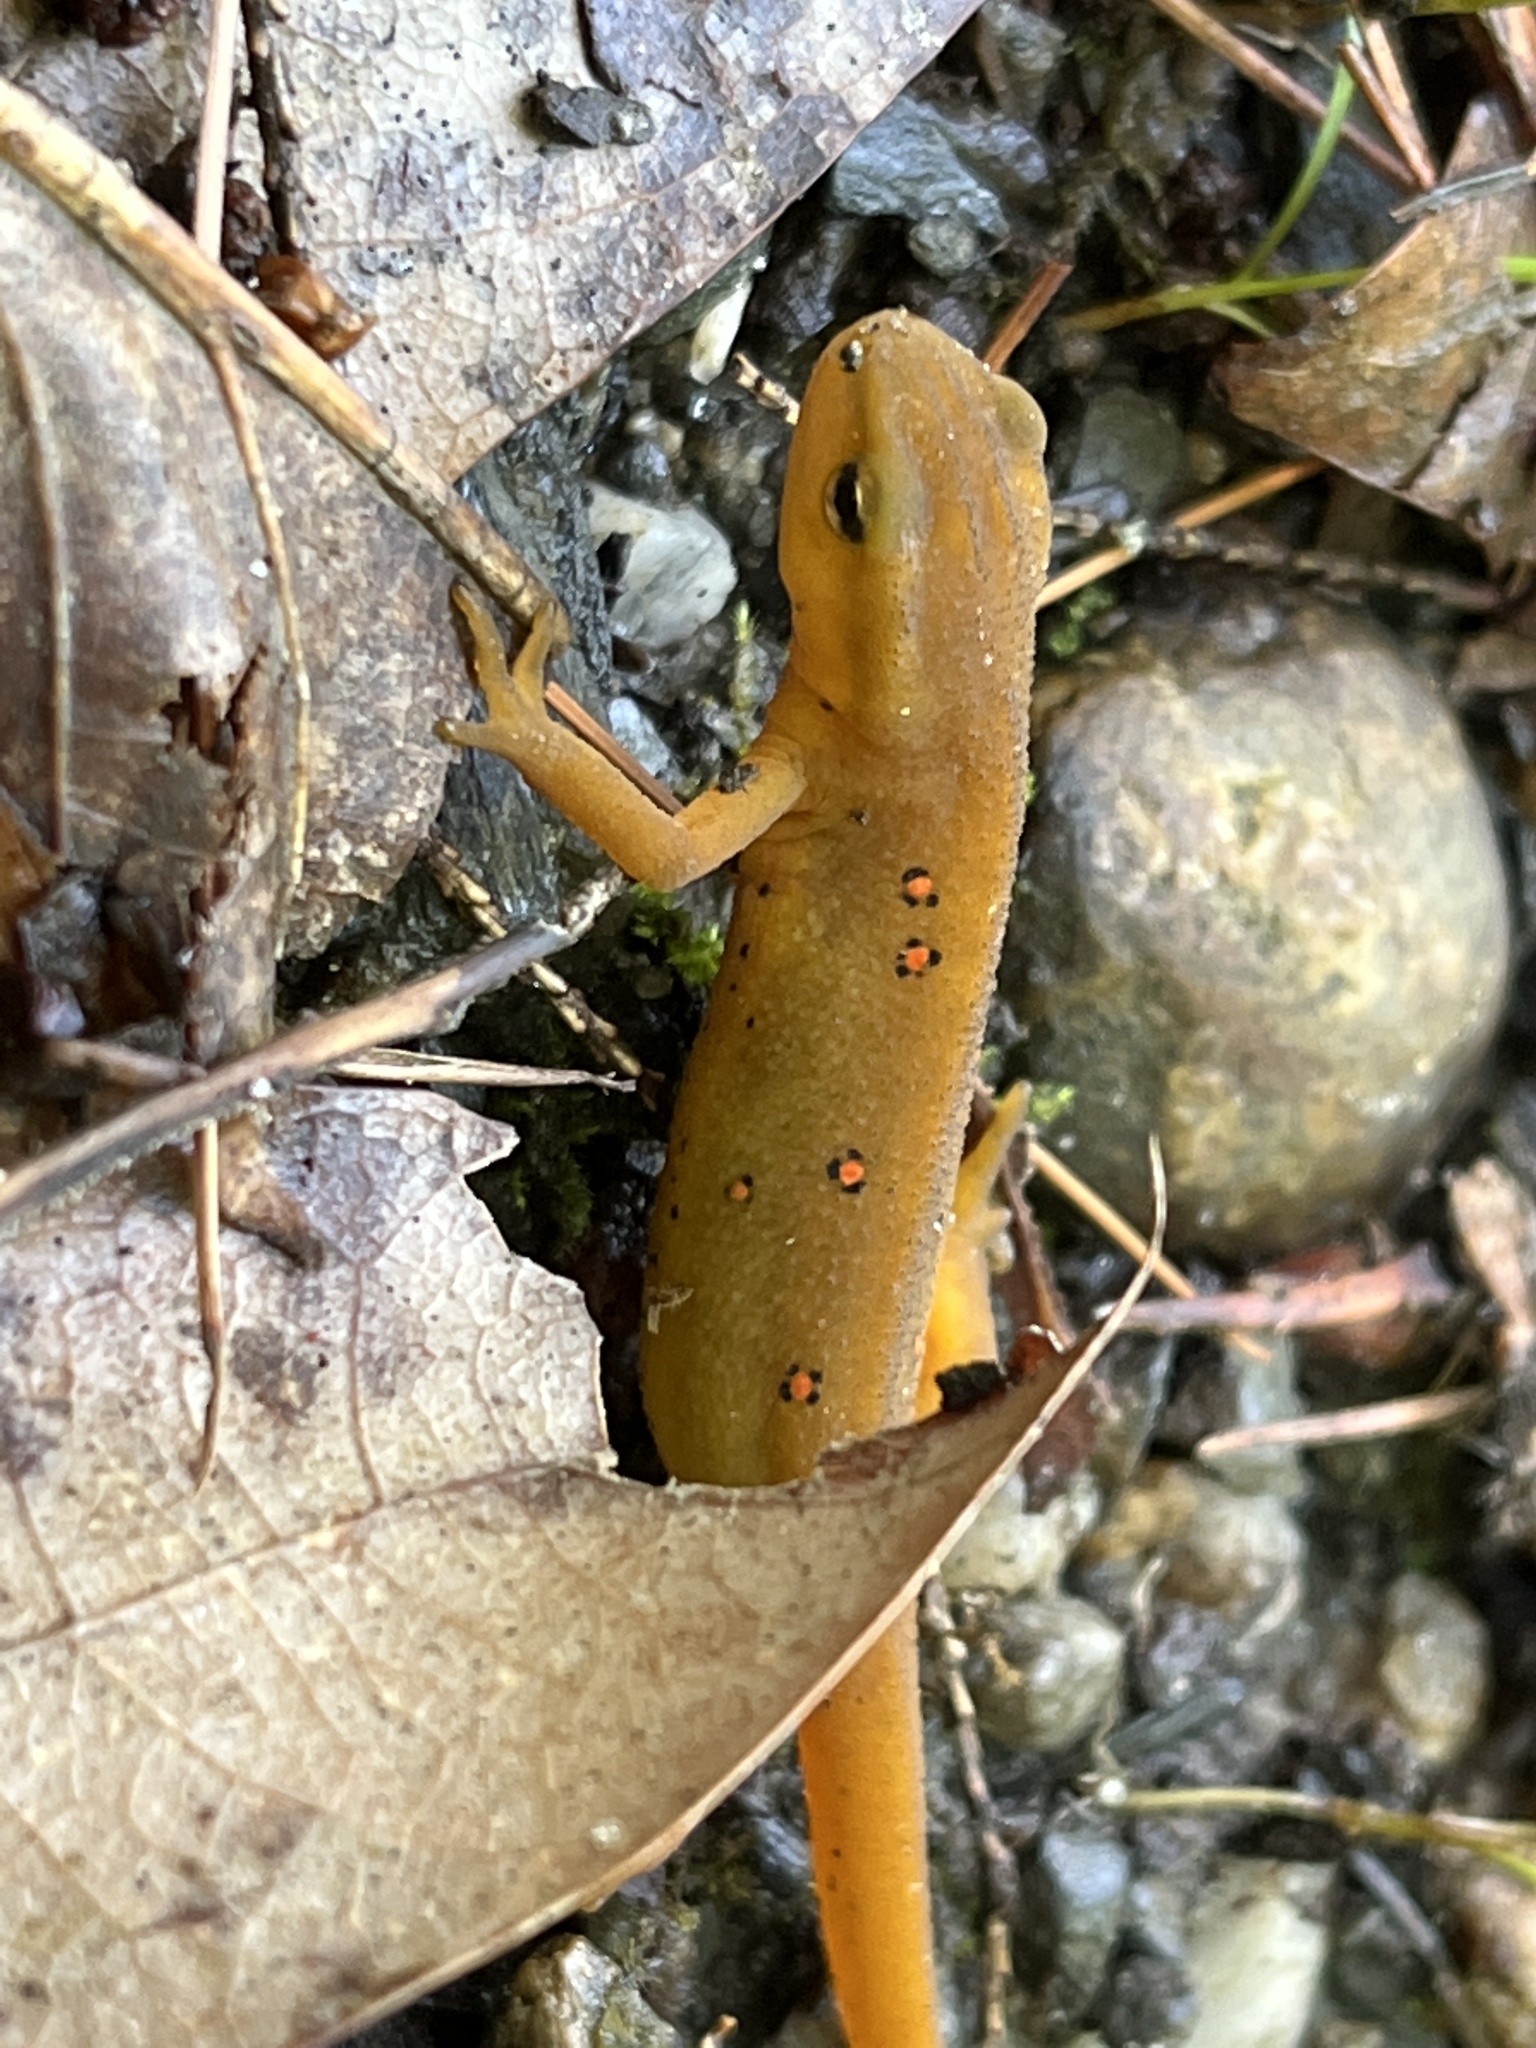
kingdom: Animalia
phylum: Chordata
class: Amphibia
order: Caudata
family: Salamandridae
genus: Notophthalmus
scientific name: Notophthalmus viridescens
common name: Eastern newt
